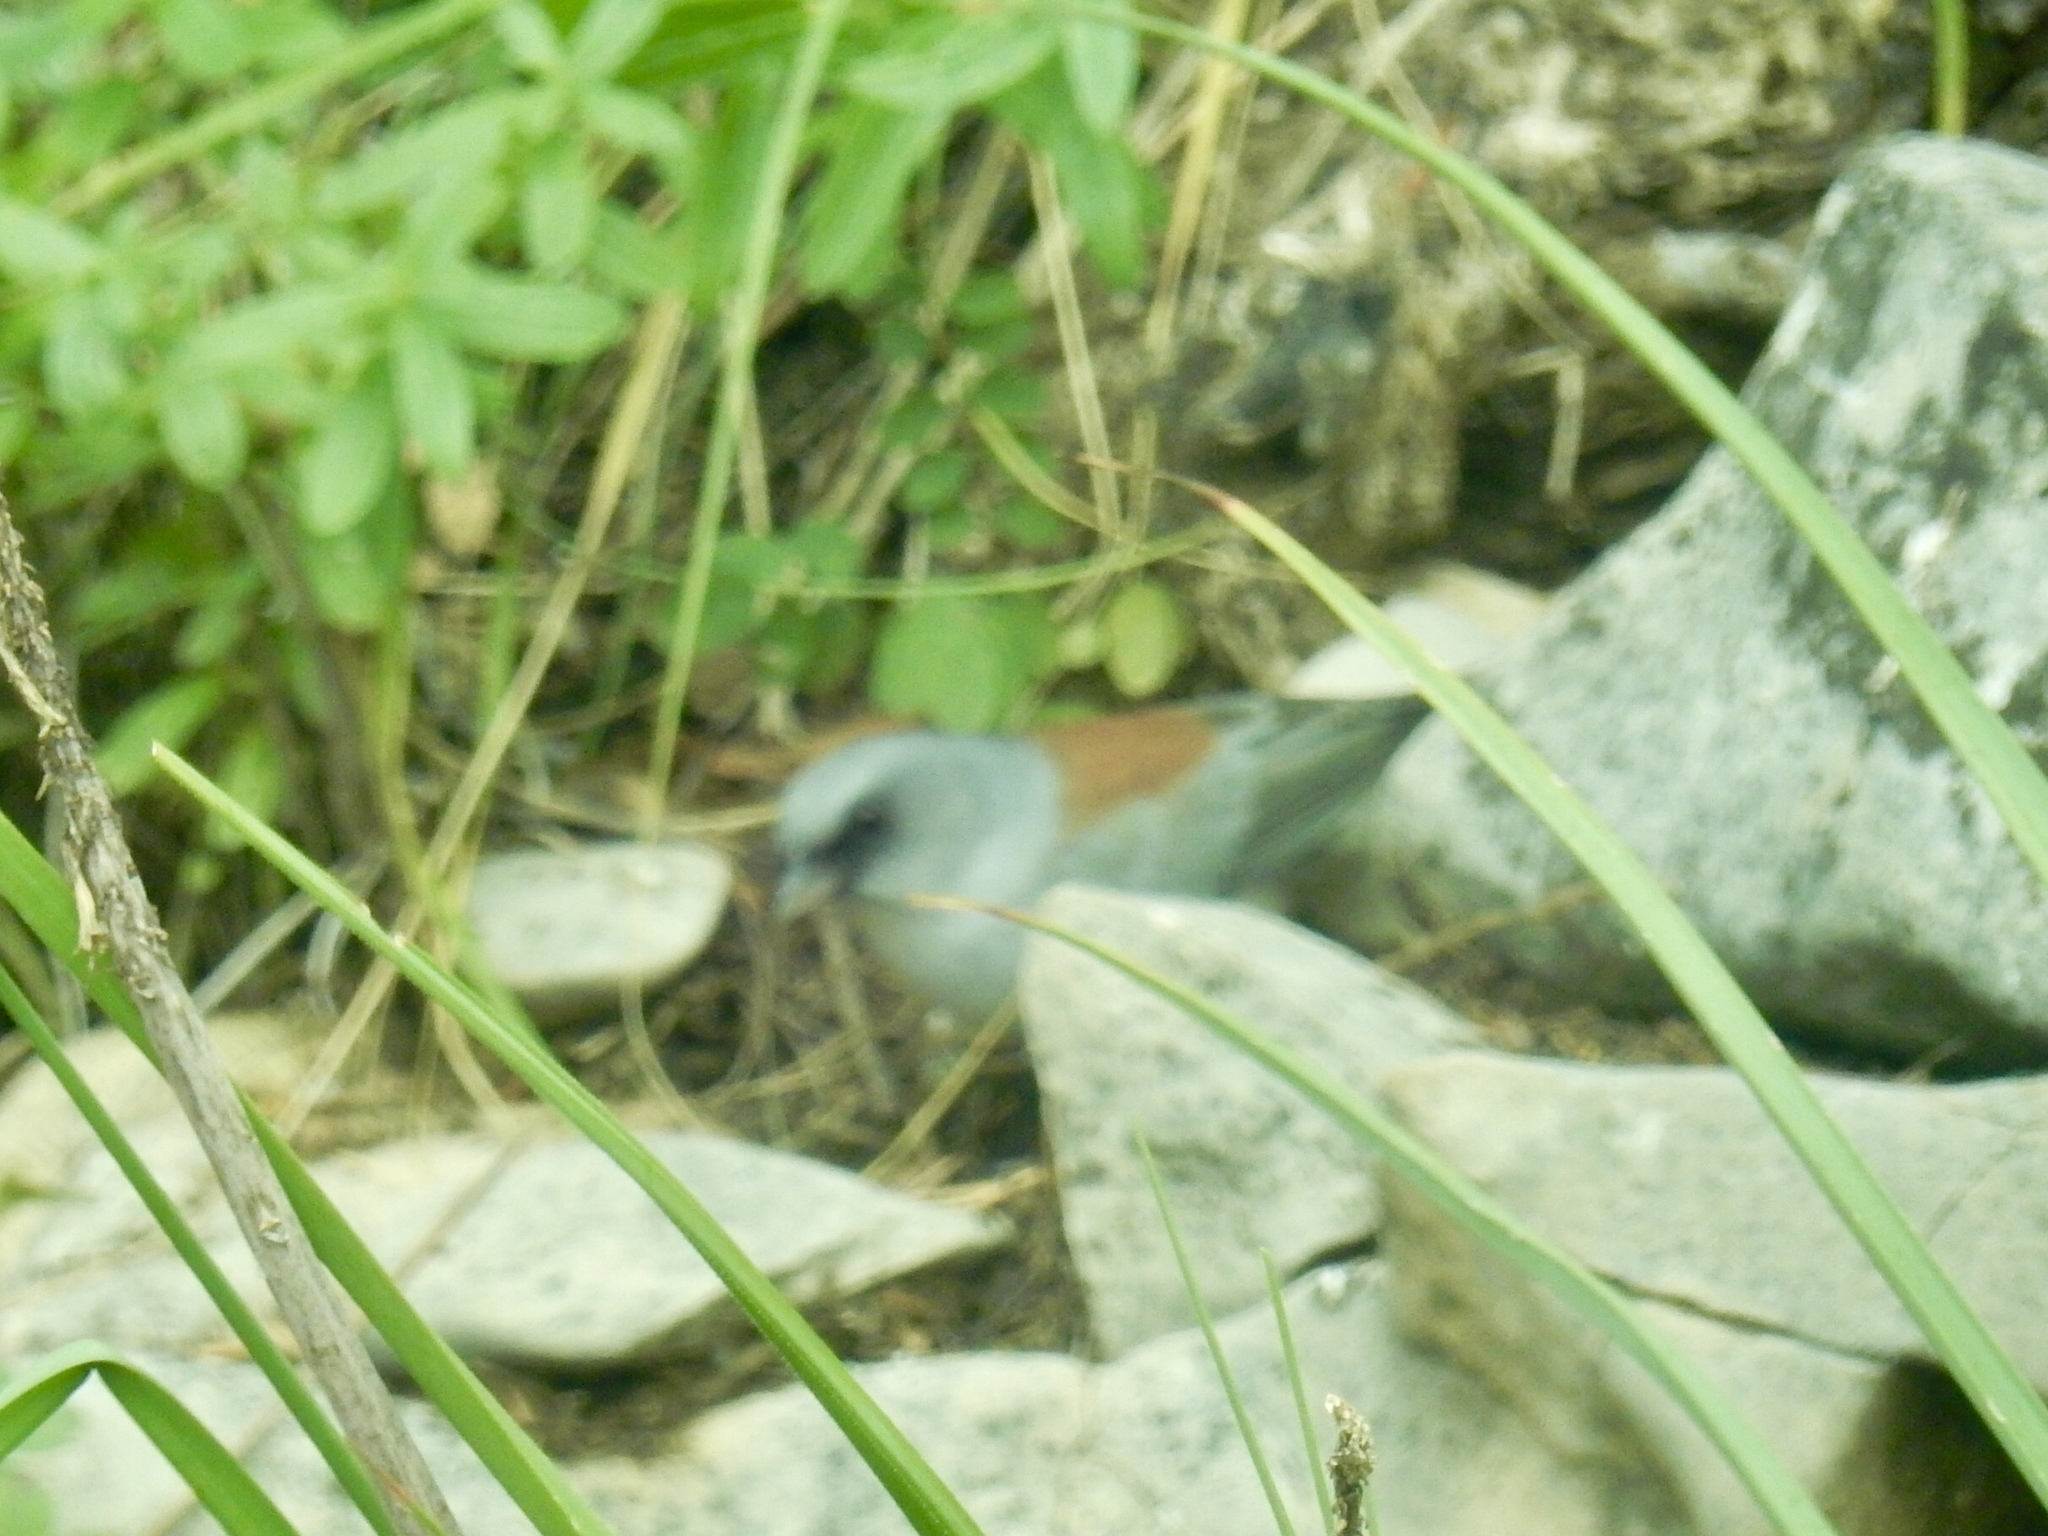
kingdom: Animalia
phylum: Chordata
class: Aves
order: Passeriformes
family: Passerellidae
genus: Junco
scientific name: Junco hyemalis
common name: Dark-eyed junco
